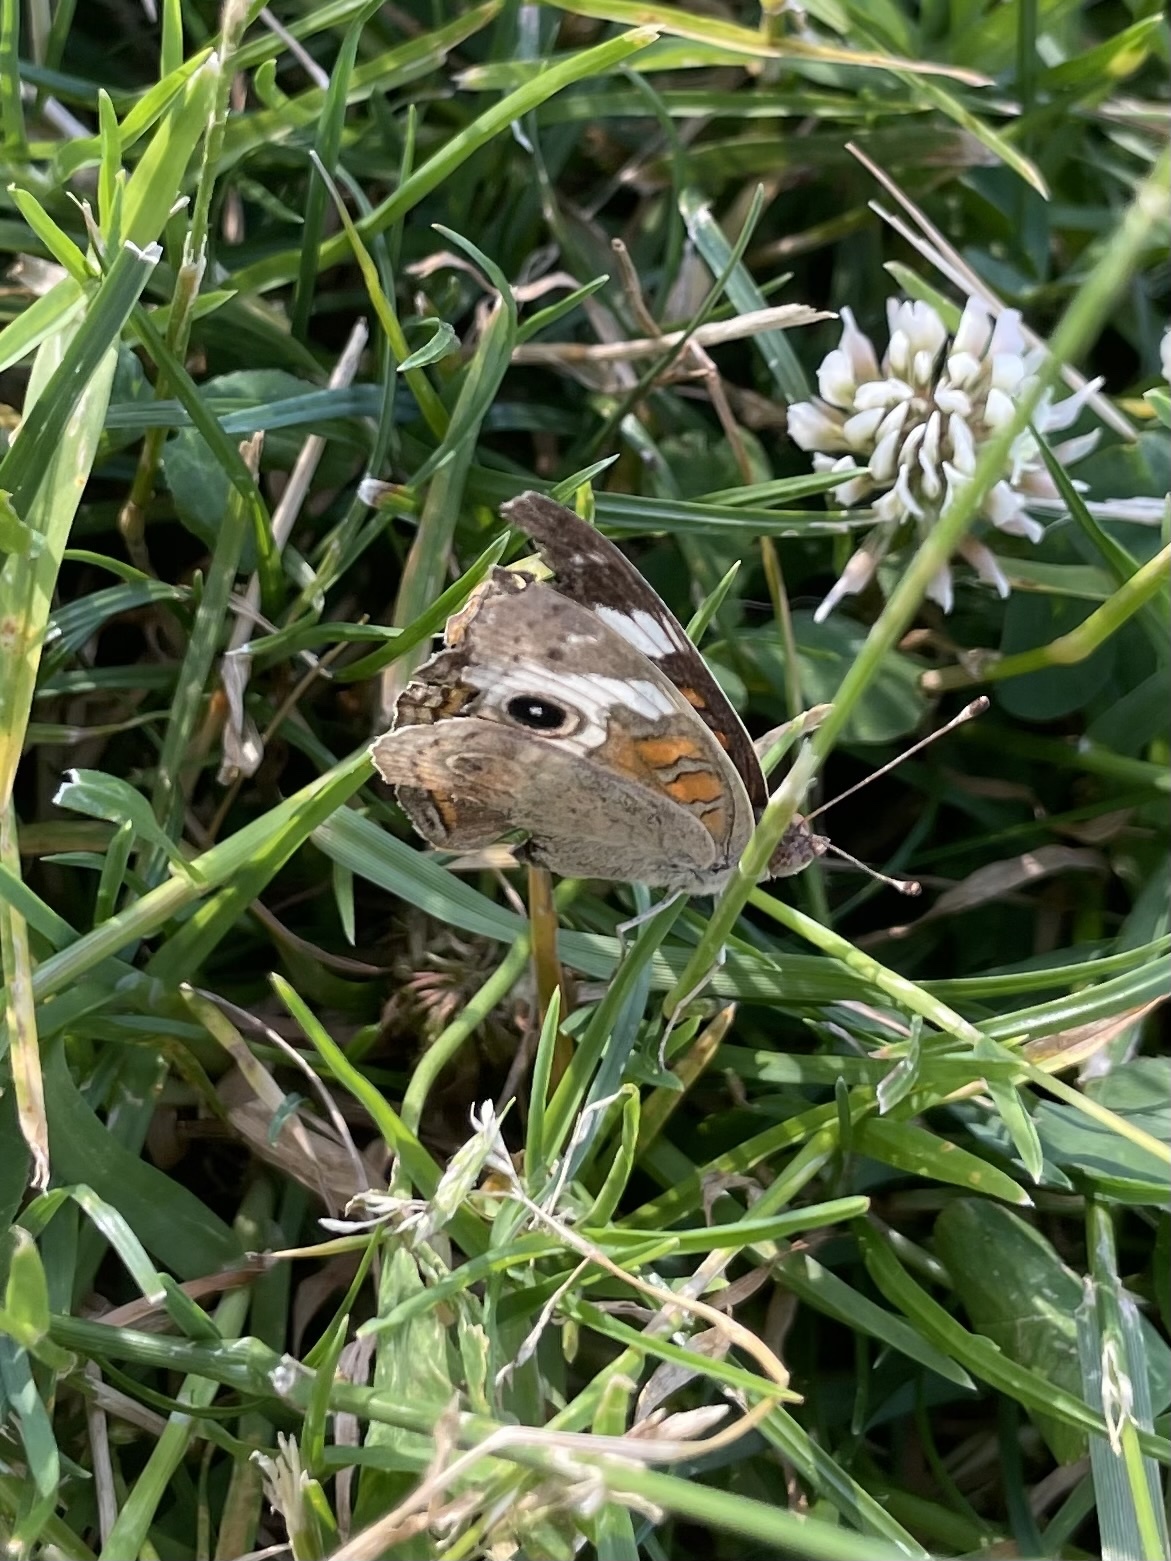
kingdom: Animalia
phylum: Arthropoda
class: Insecta
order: Lepidoptera
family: Nymphalidae
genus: Junonia
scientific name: Junonia grisea
